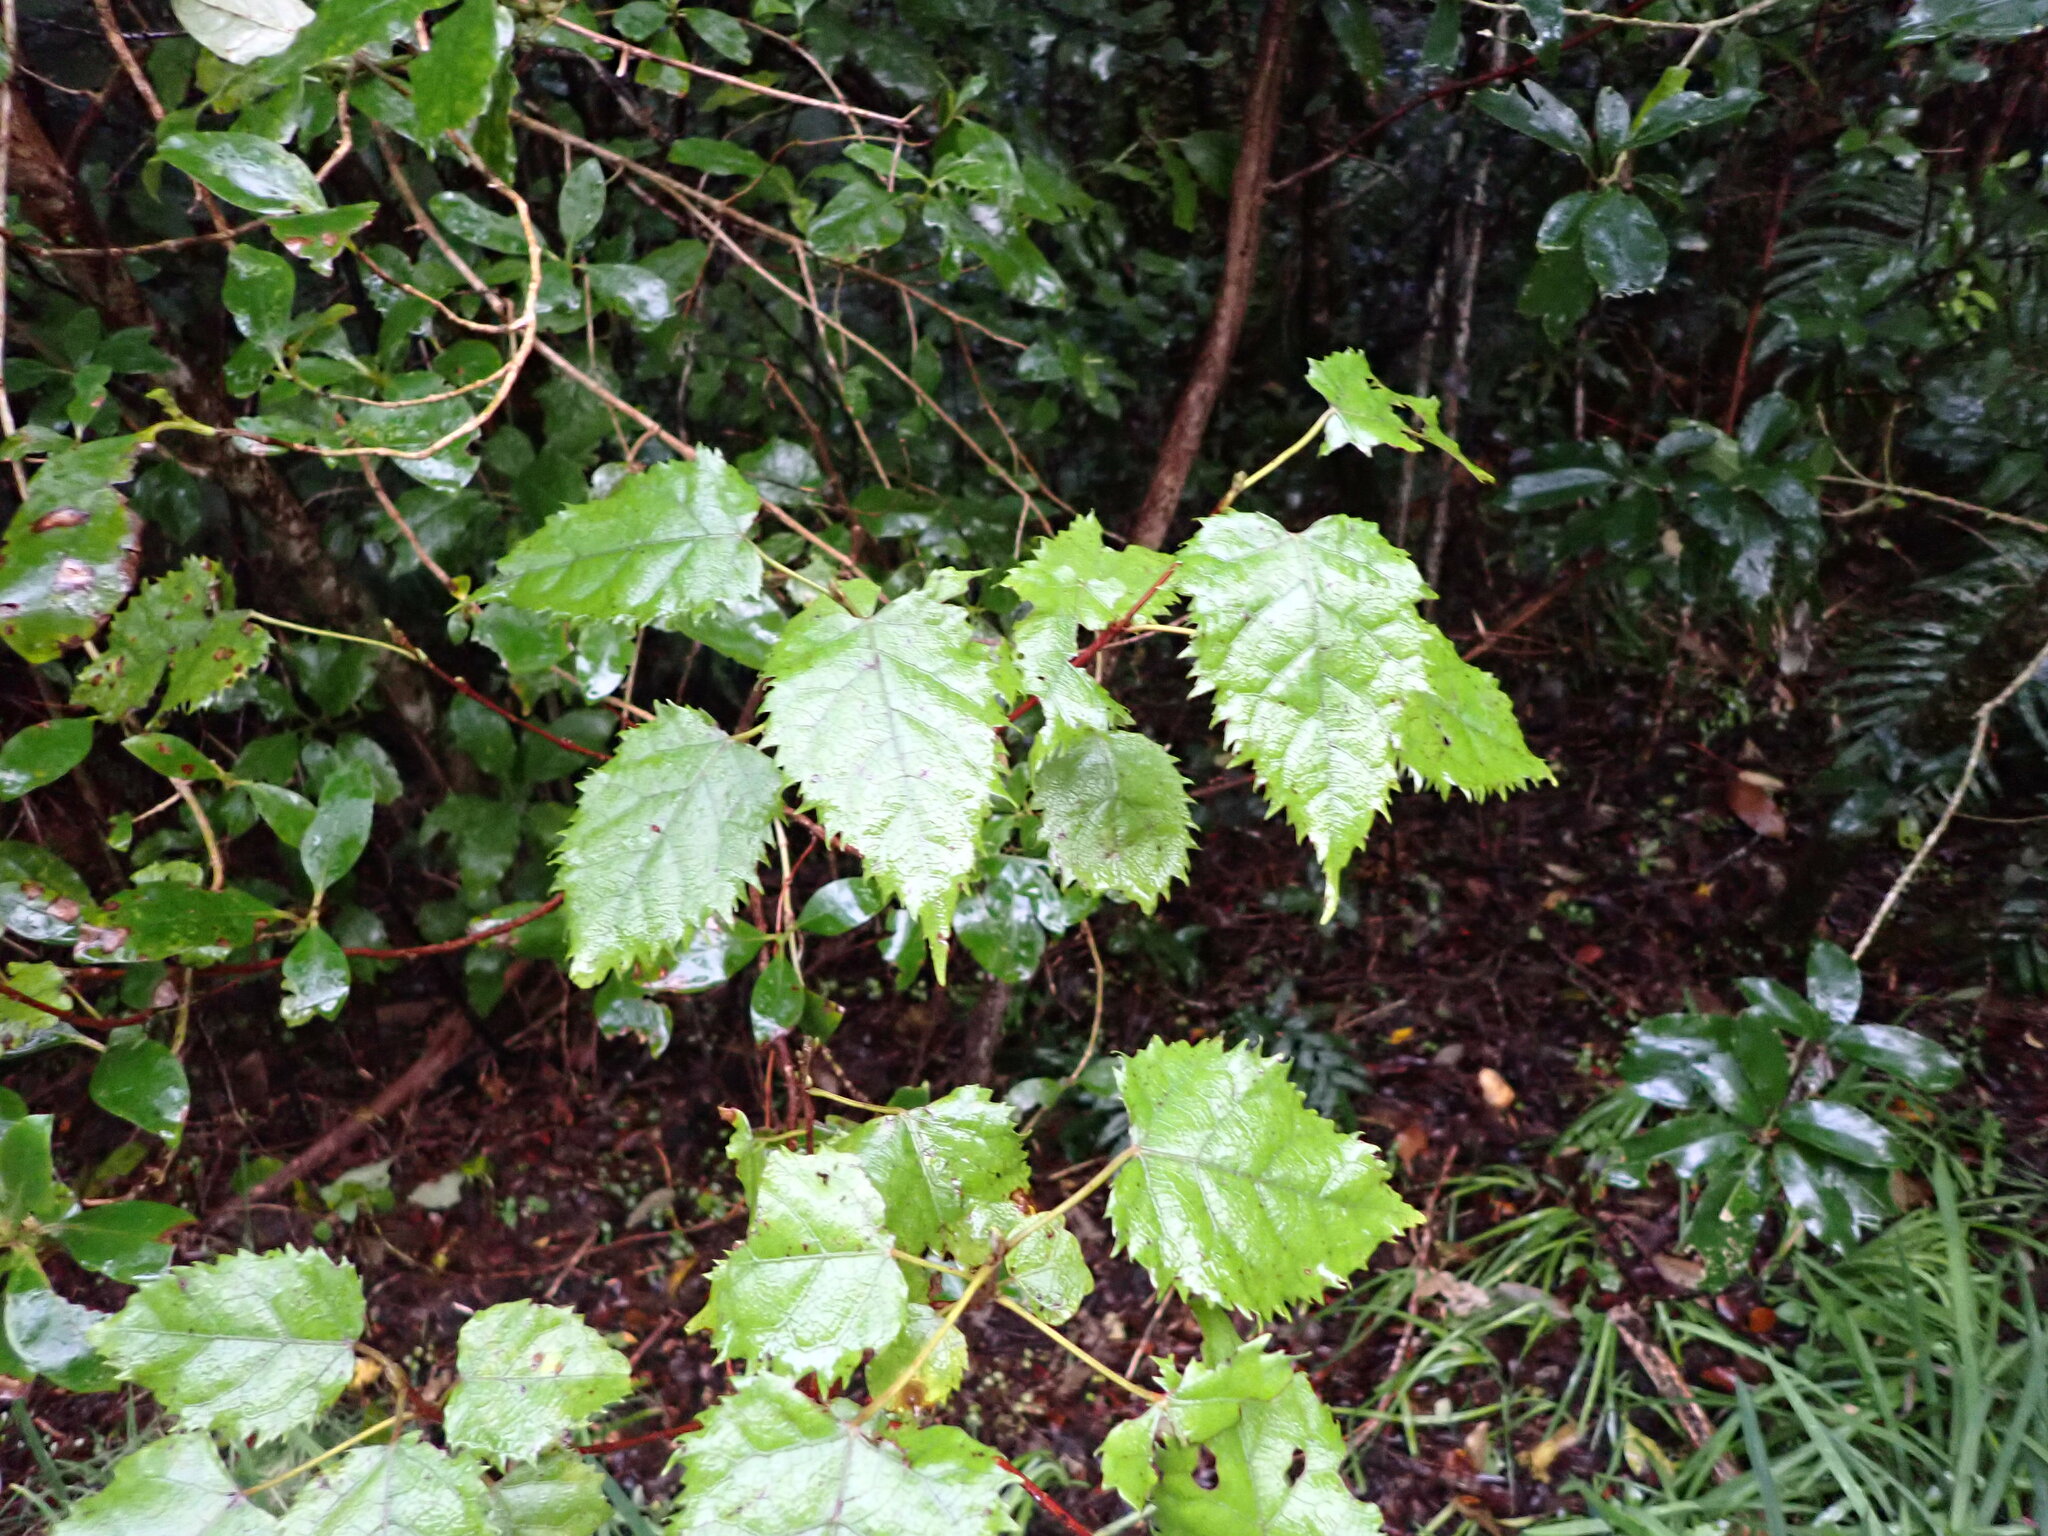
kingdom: Plantae
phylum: Tracheophyta
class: Magnoliopsida
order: Oxalidales
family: Elaeocarpaceae
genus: Aristotelia
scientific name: Aristotelia serrata
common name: New zealand wineberry
